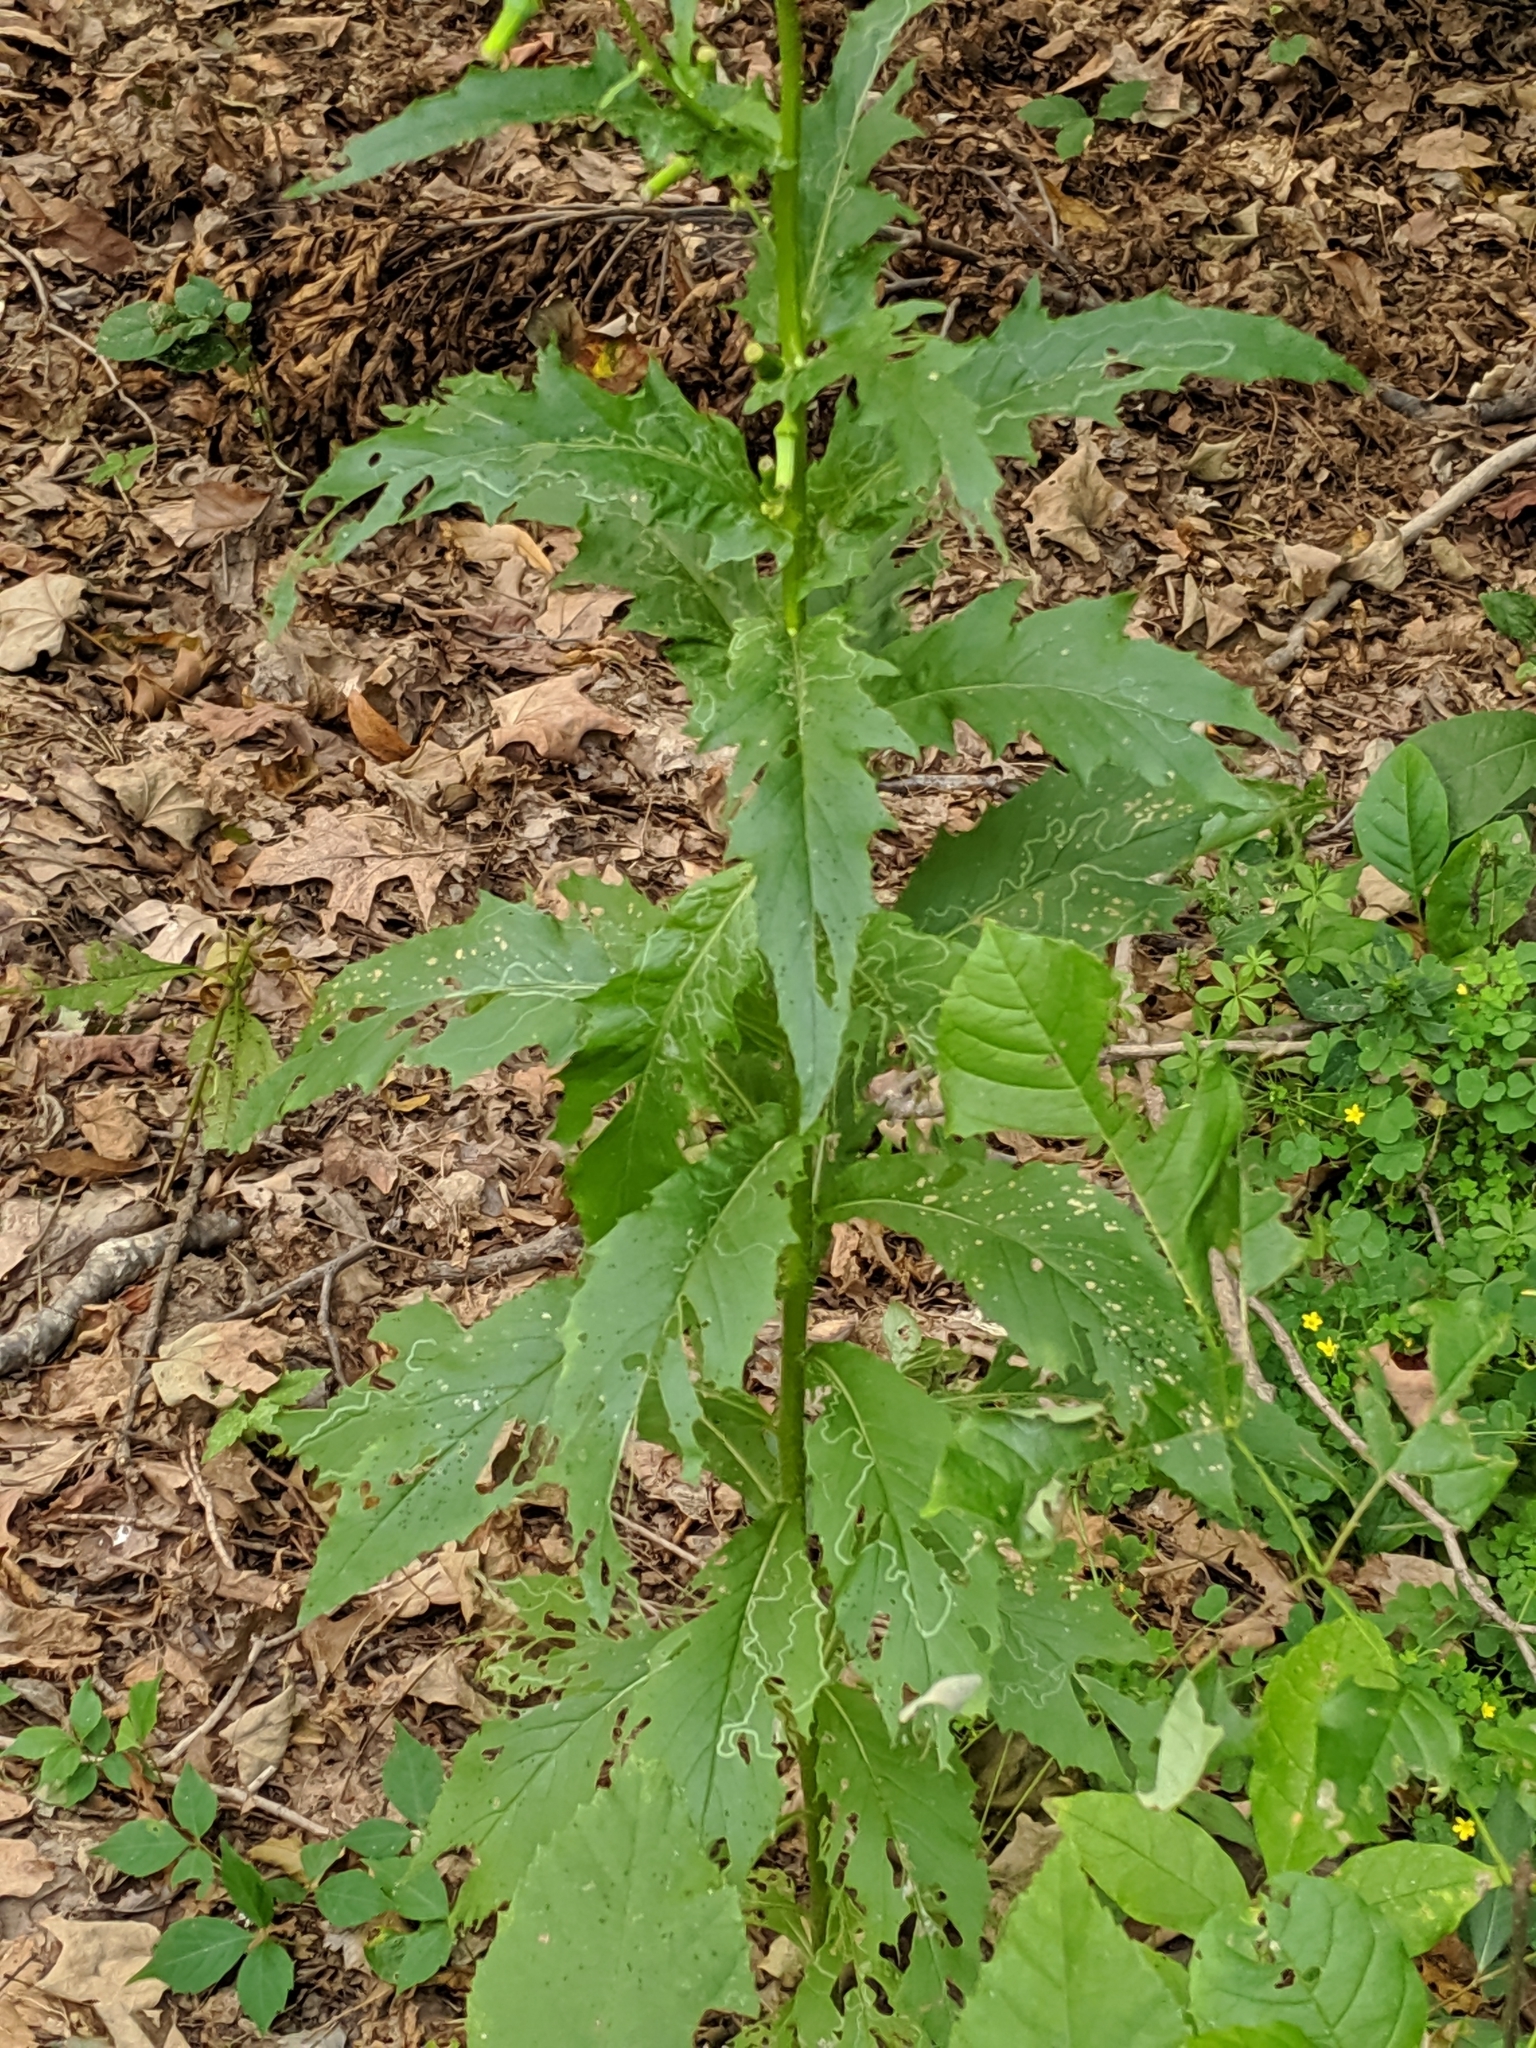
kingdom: Plantae
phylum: Tracheophyta
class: Magnoliopsida
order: Asterales
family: Asteraceae
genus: Erechtites
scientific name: Erechtites hieraciifolius
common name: American burnweed
